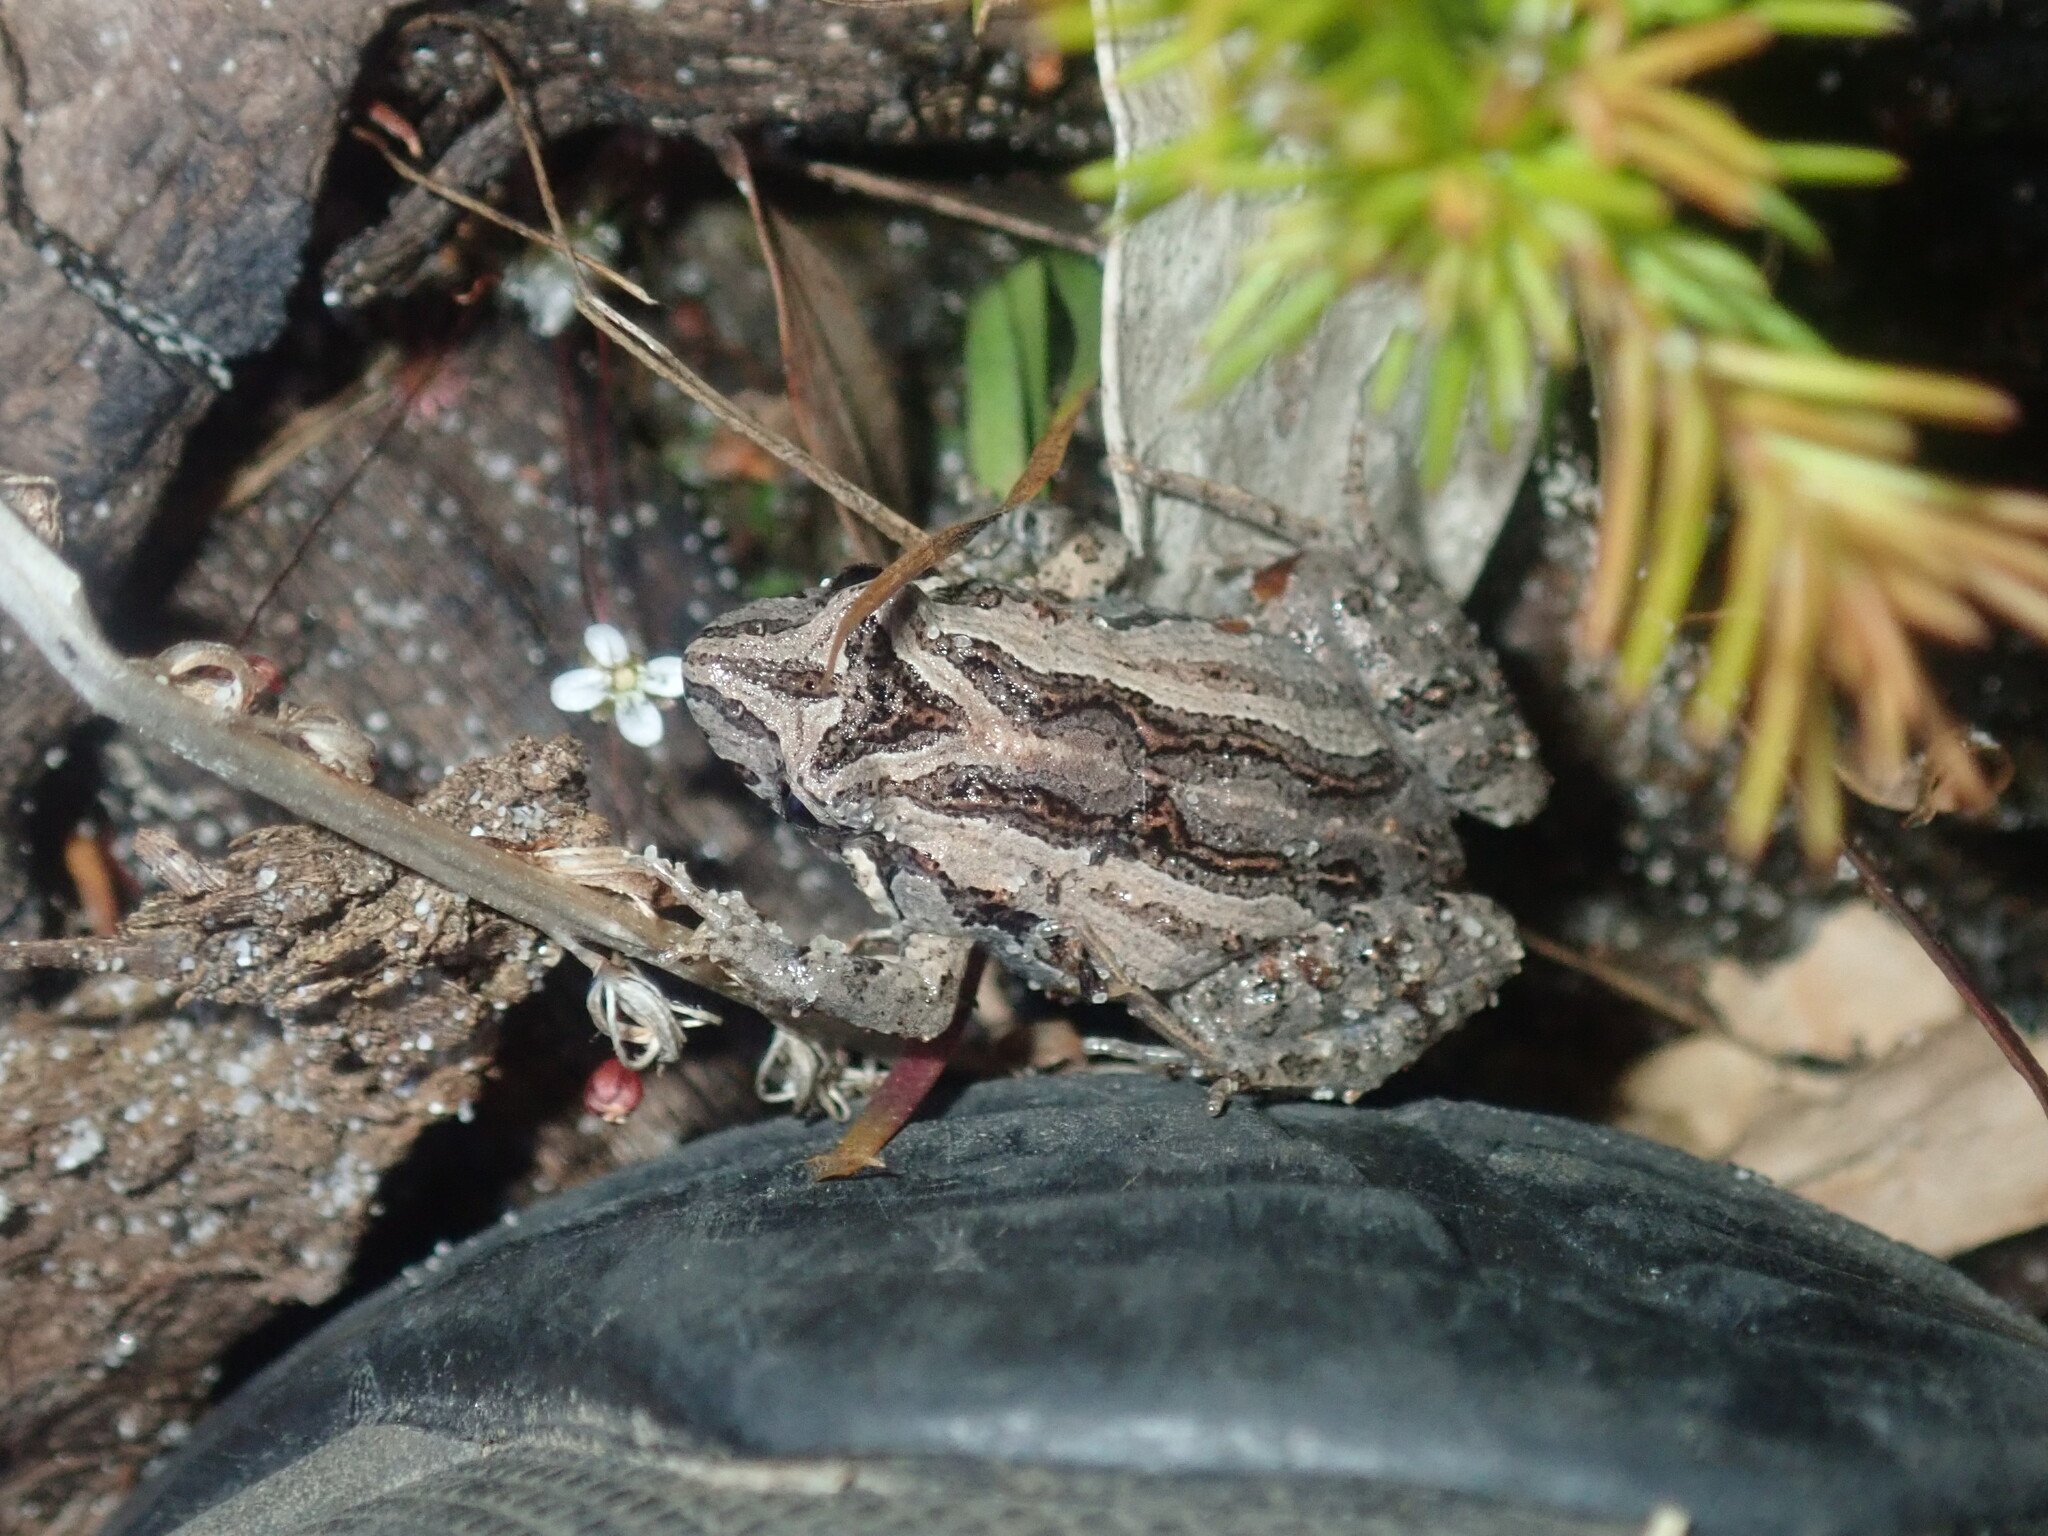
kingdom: Animalia
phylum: Chordata
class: Amphibia
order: Anura
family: Myobatrachidae
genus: Crinia
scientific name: Crinia signifera
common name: Brown froglet
